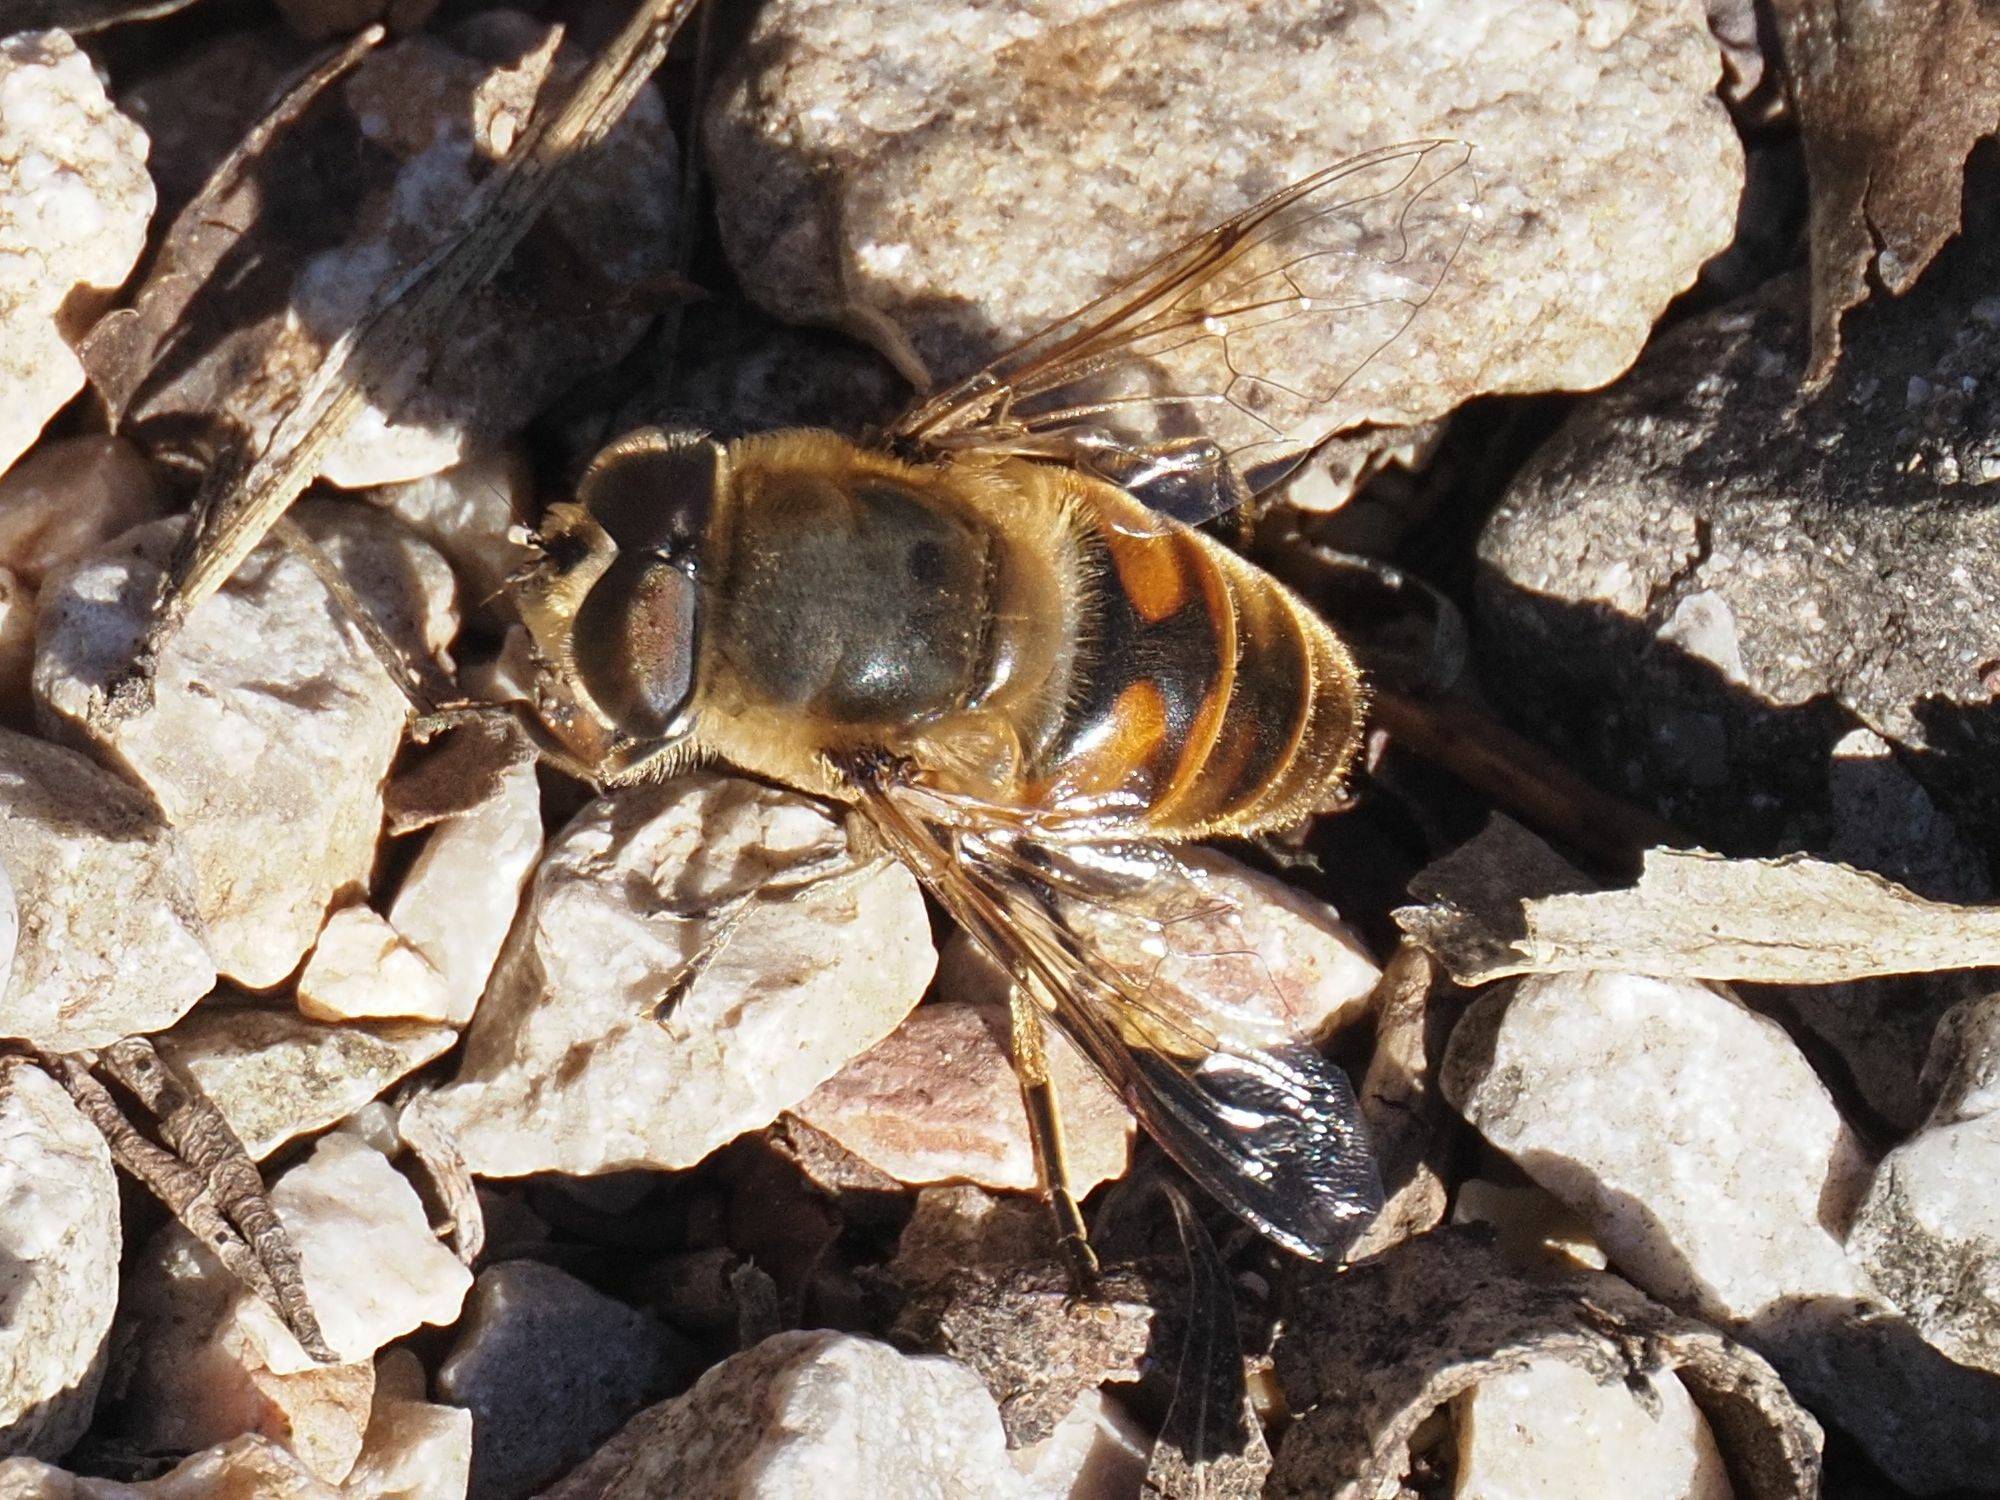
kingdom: Animalia
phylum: Arthropoda
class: Insecta
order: Diptera
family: Syrphidae
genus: Eristalis
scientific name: Eristalis tenax
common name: Drone fly
